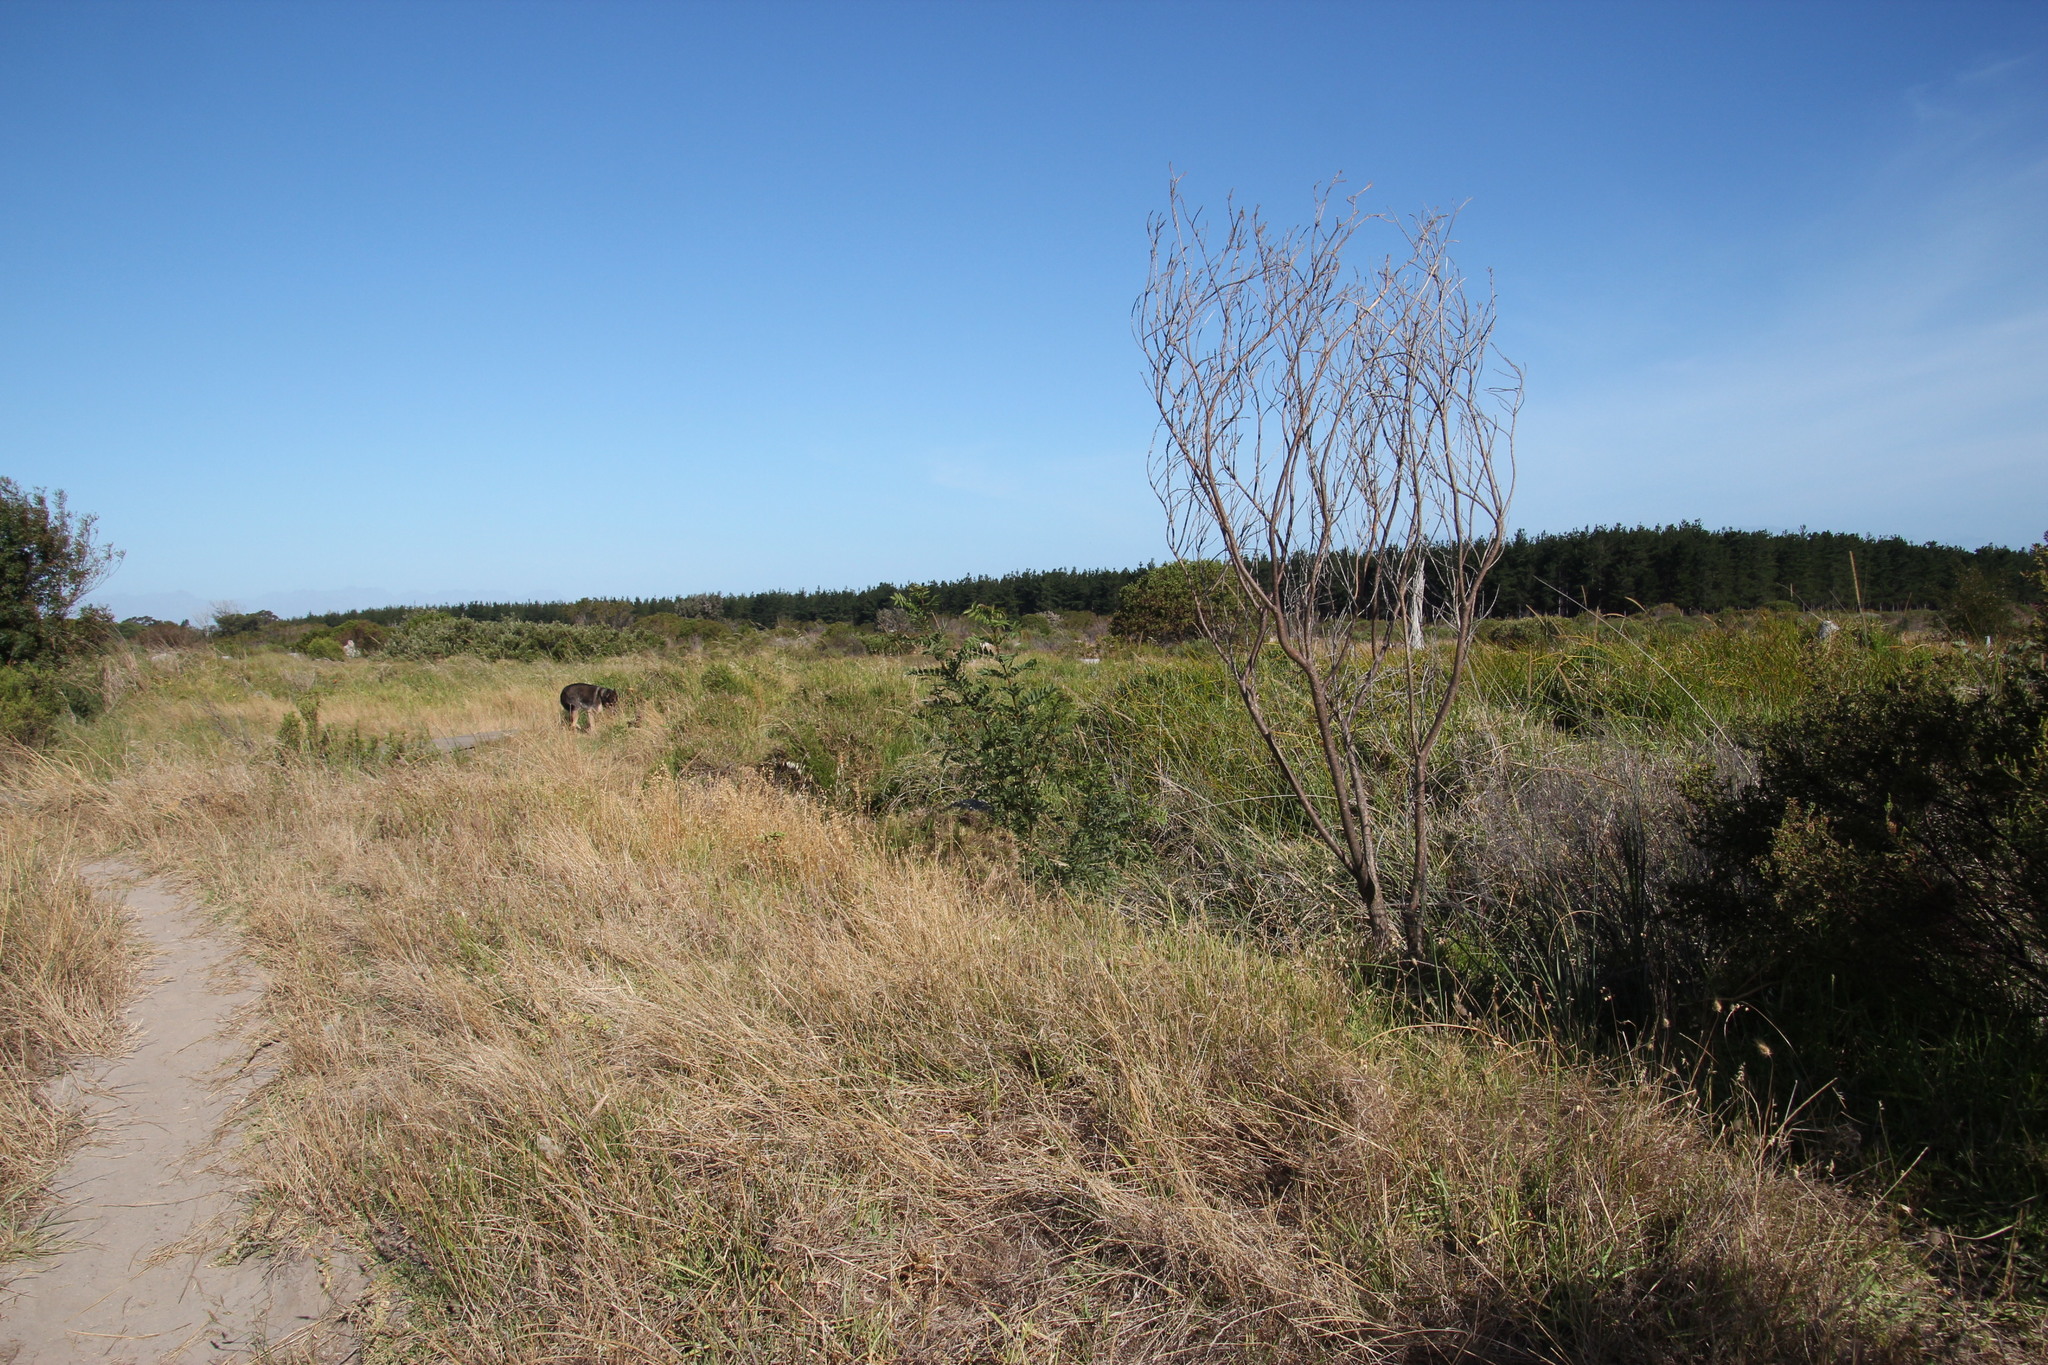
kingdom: Plantae
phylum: Tracheophyta
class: Magnoliopsida
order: Lamiales
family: Oleaceae
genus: Fraxinus
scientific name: Fraxinus excelsior
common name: European ash
